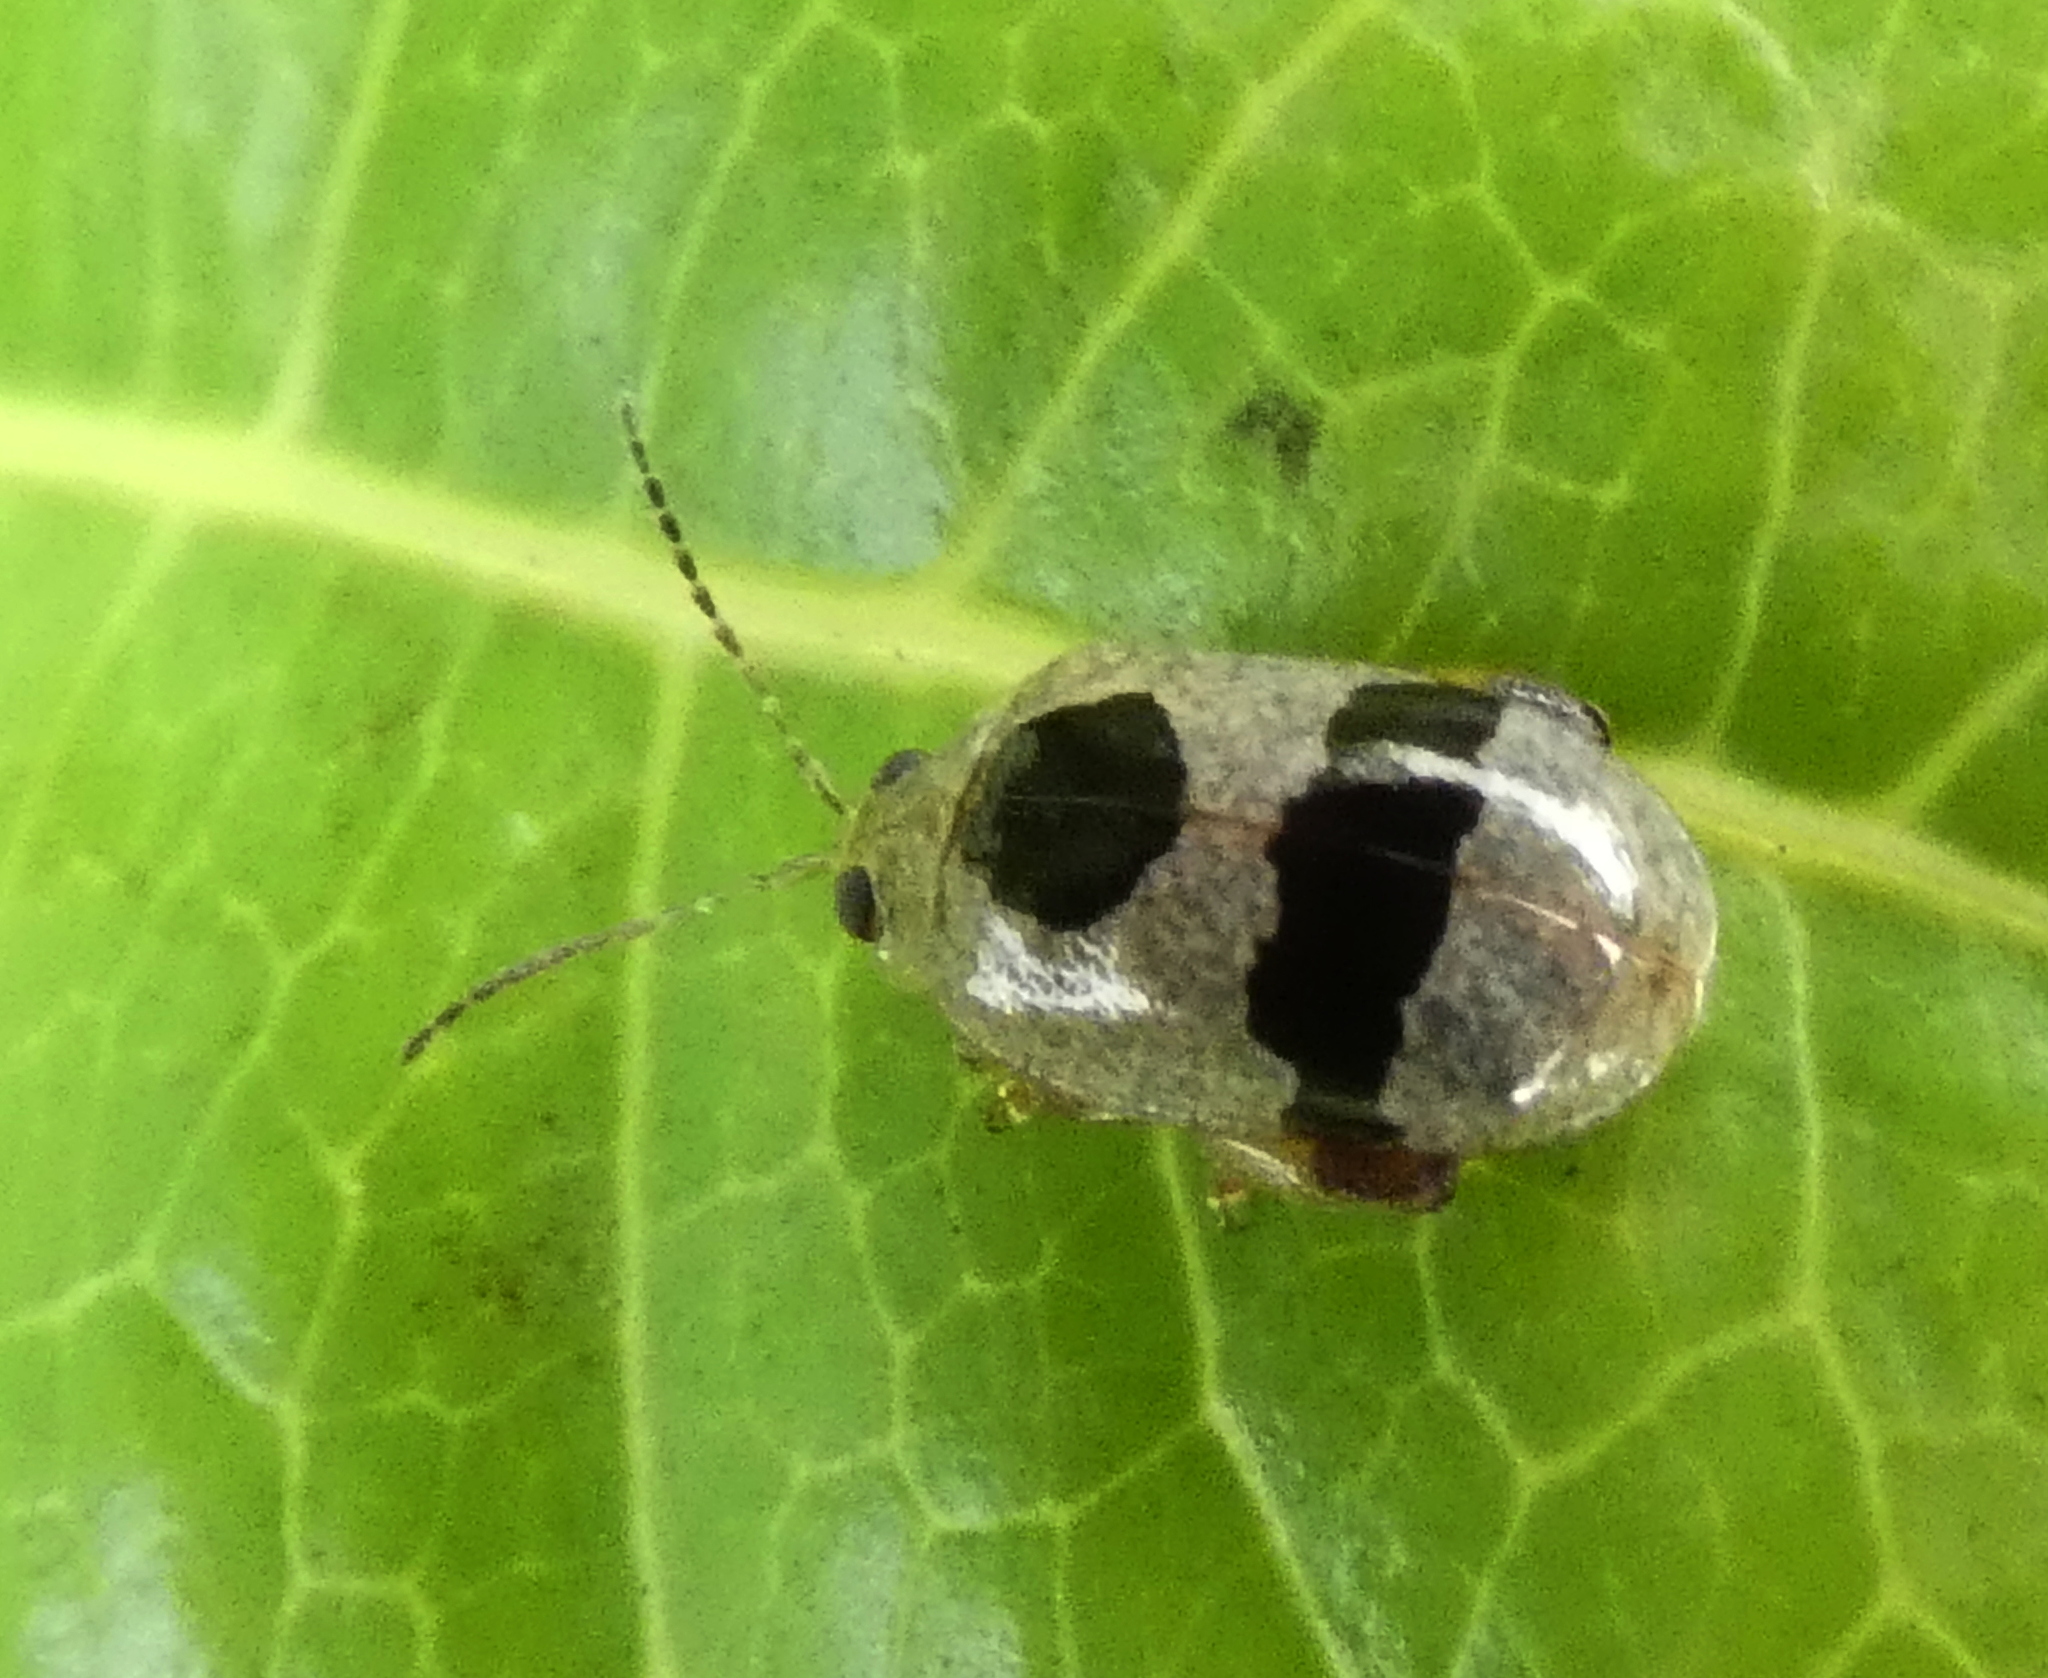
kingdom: Animalia
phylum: Arthropoda
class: Insecta
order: Coleoptera
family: Chrysomelidae
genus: Alagoasa
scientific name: Alagoasa
